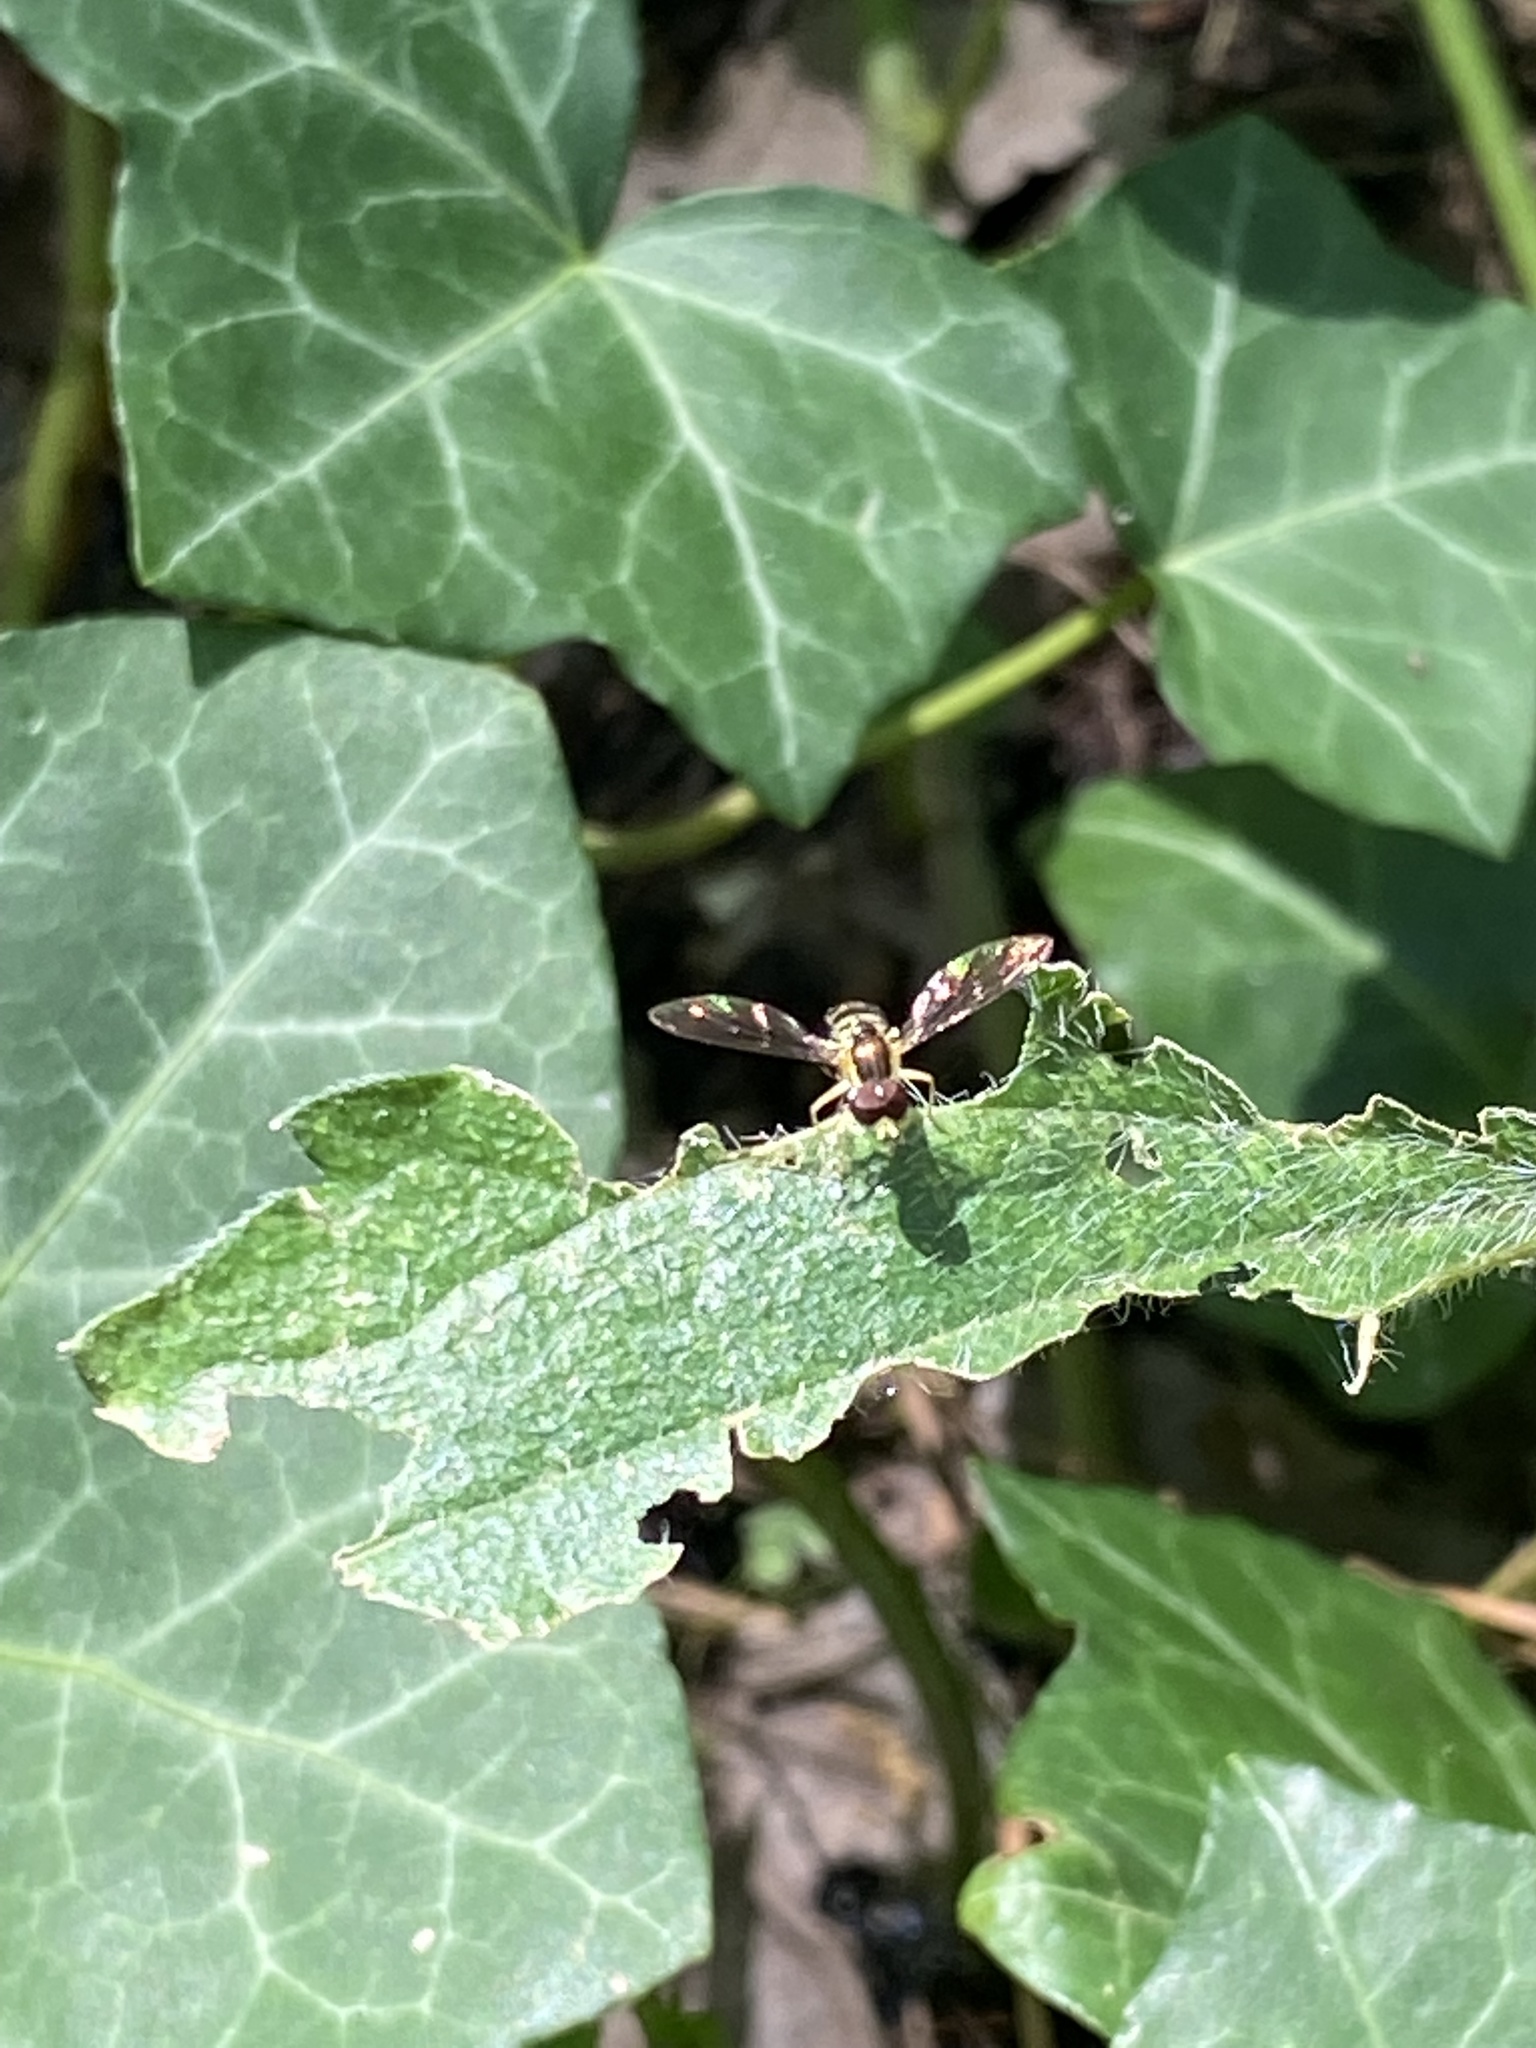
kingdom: Animalia
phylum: Arthropoda
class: Insecta
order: Diptera
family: Syrphidae
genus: Toxomerus
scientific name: Toxomerus geminatus
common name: Eastern calligrapher
